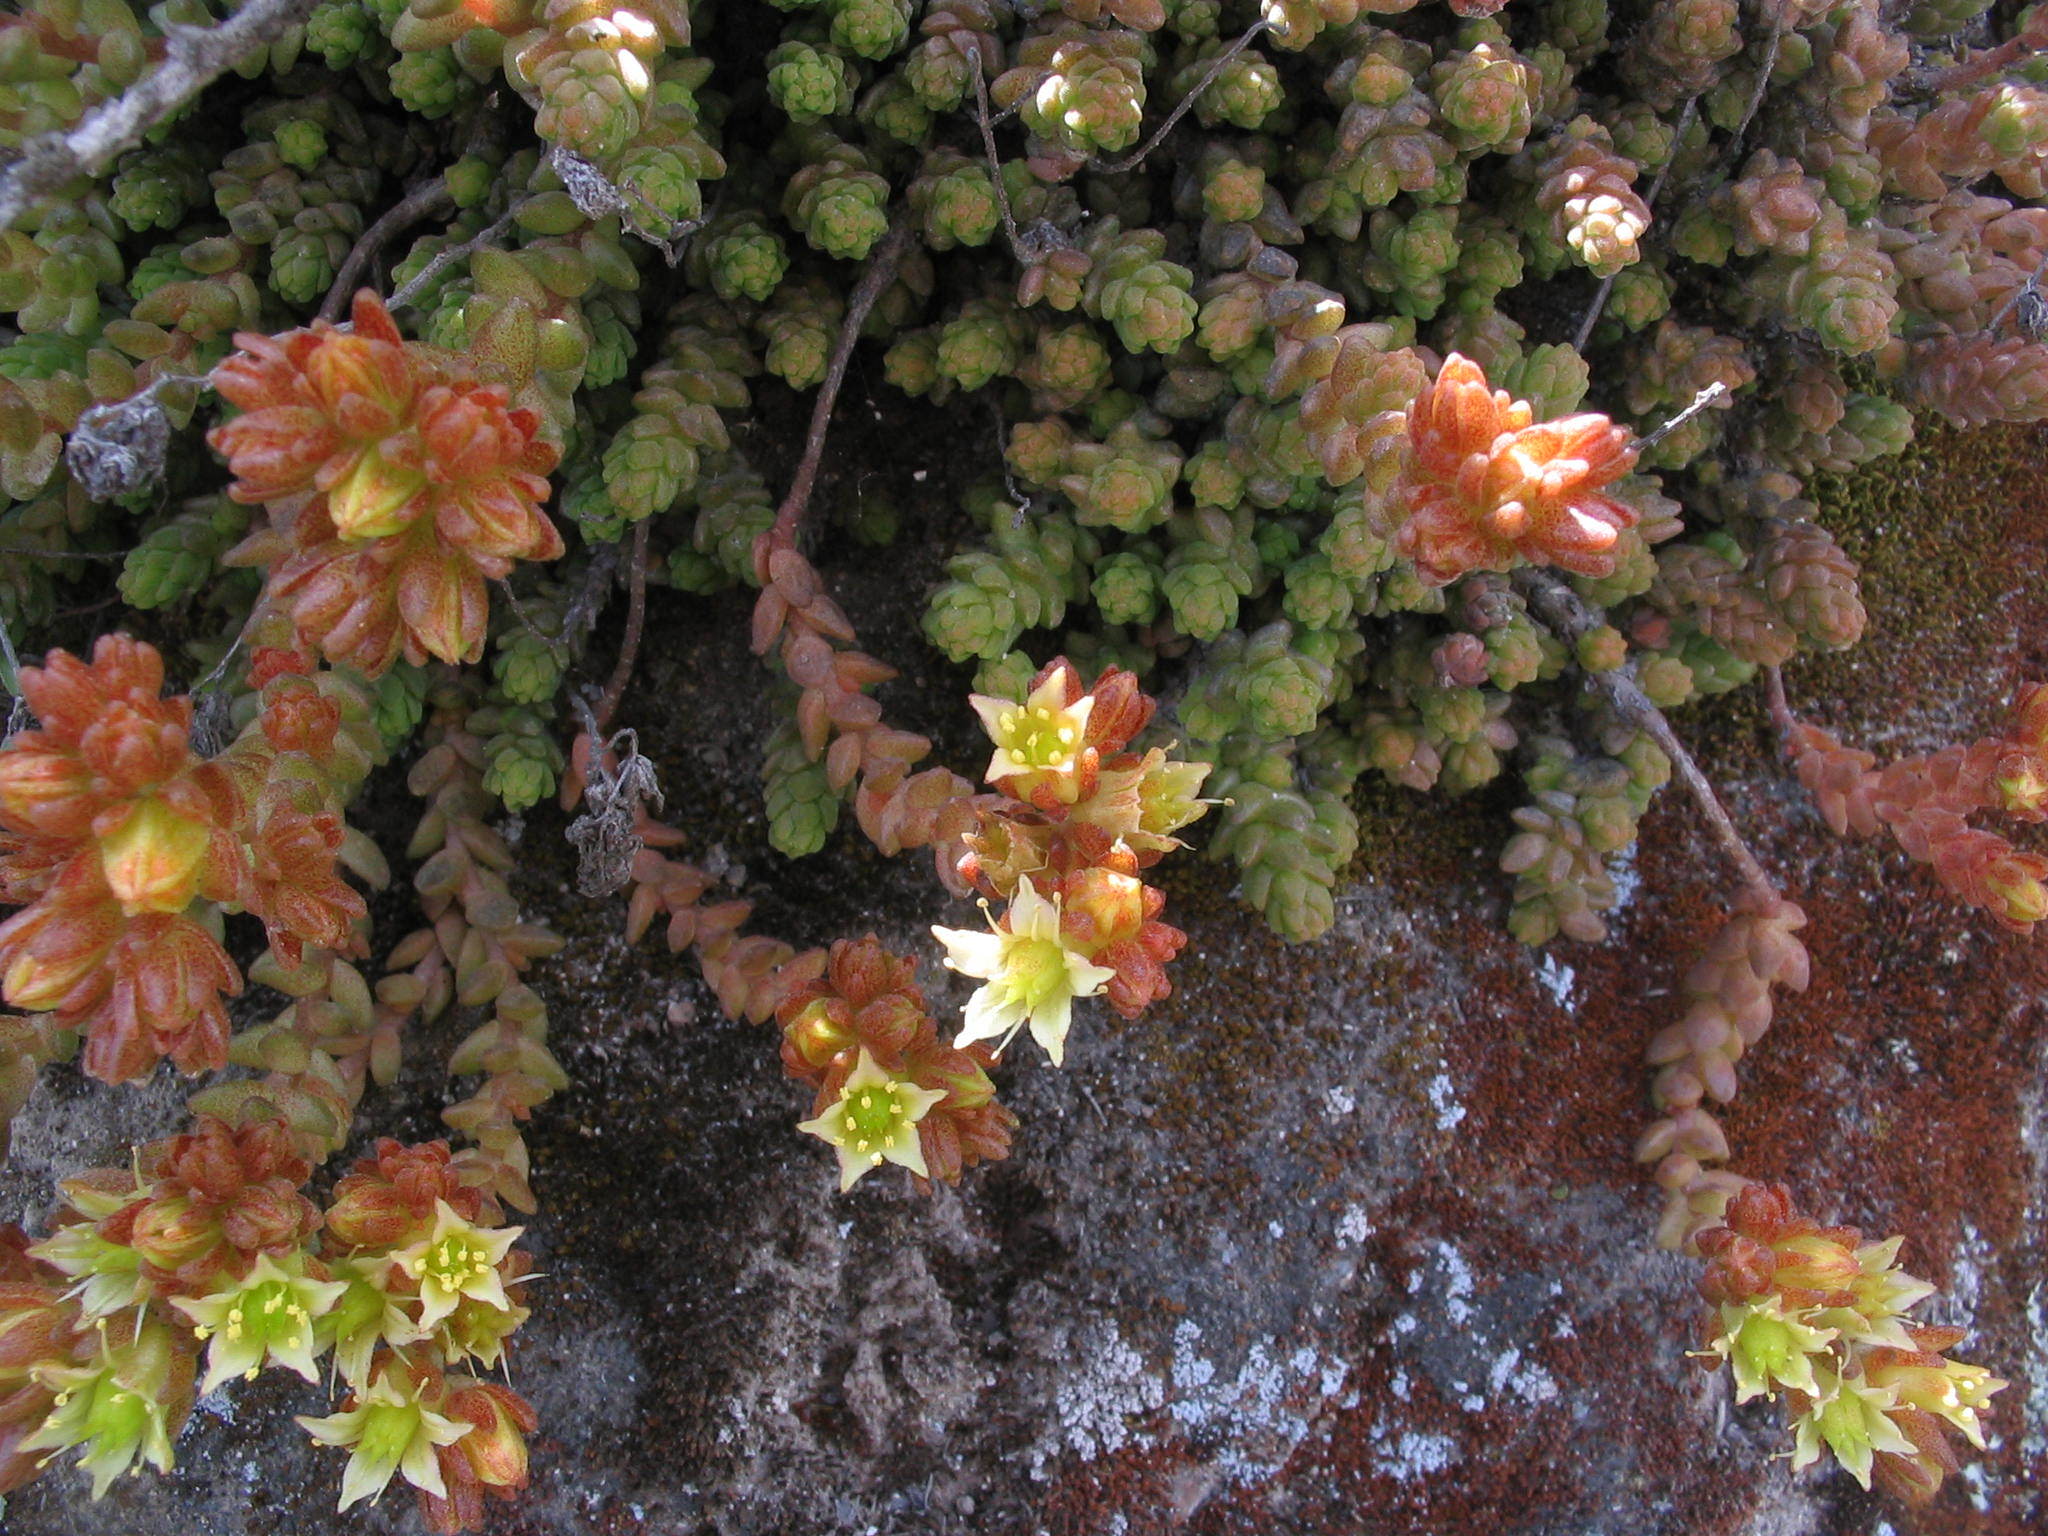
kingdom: Plantae
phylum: Tracheophyta
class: Magnoliopsida
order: Saxifragales
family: Crassulaceae
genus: Sedum
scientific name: Sedum ignescens
